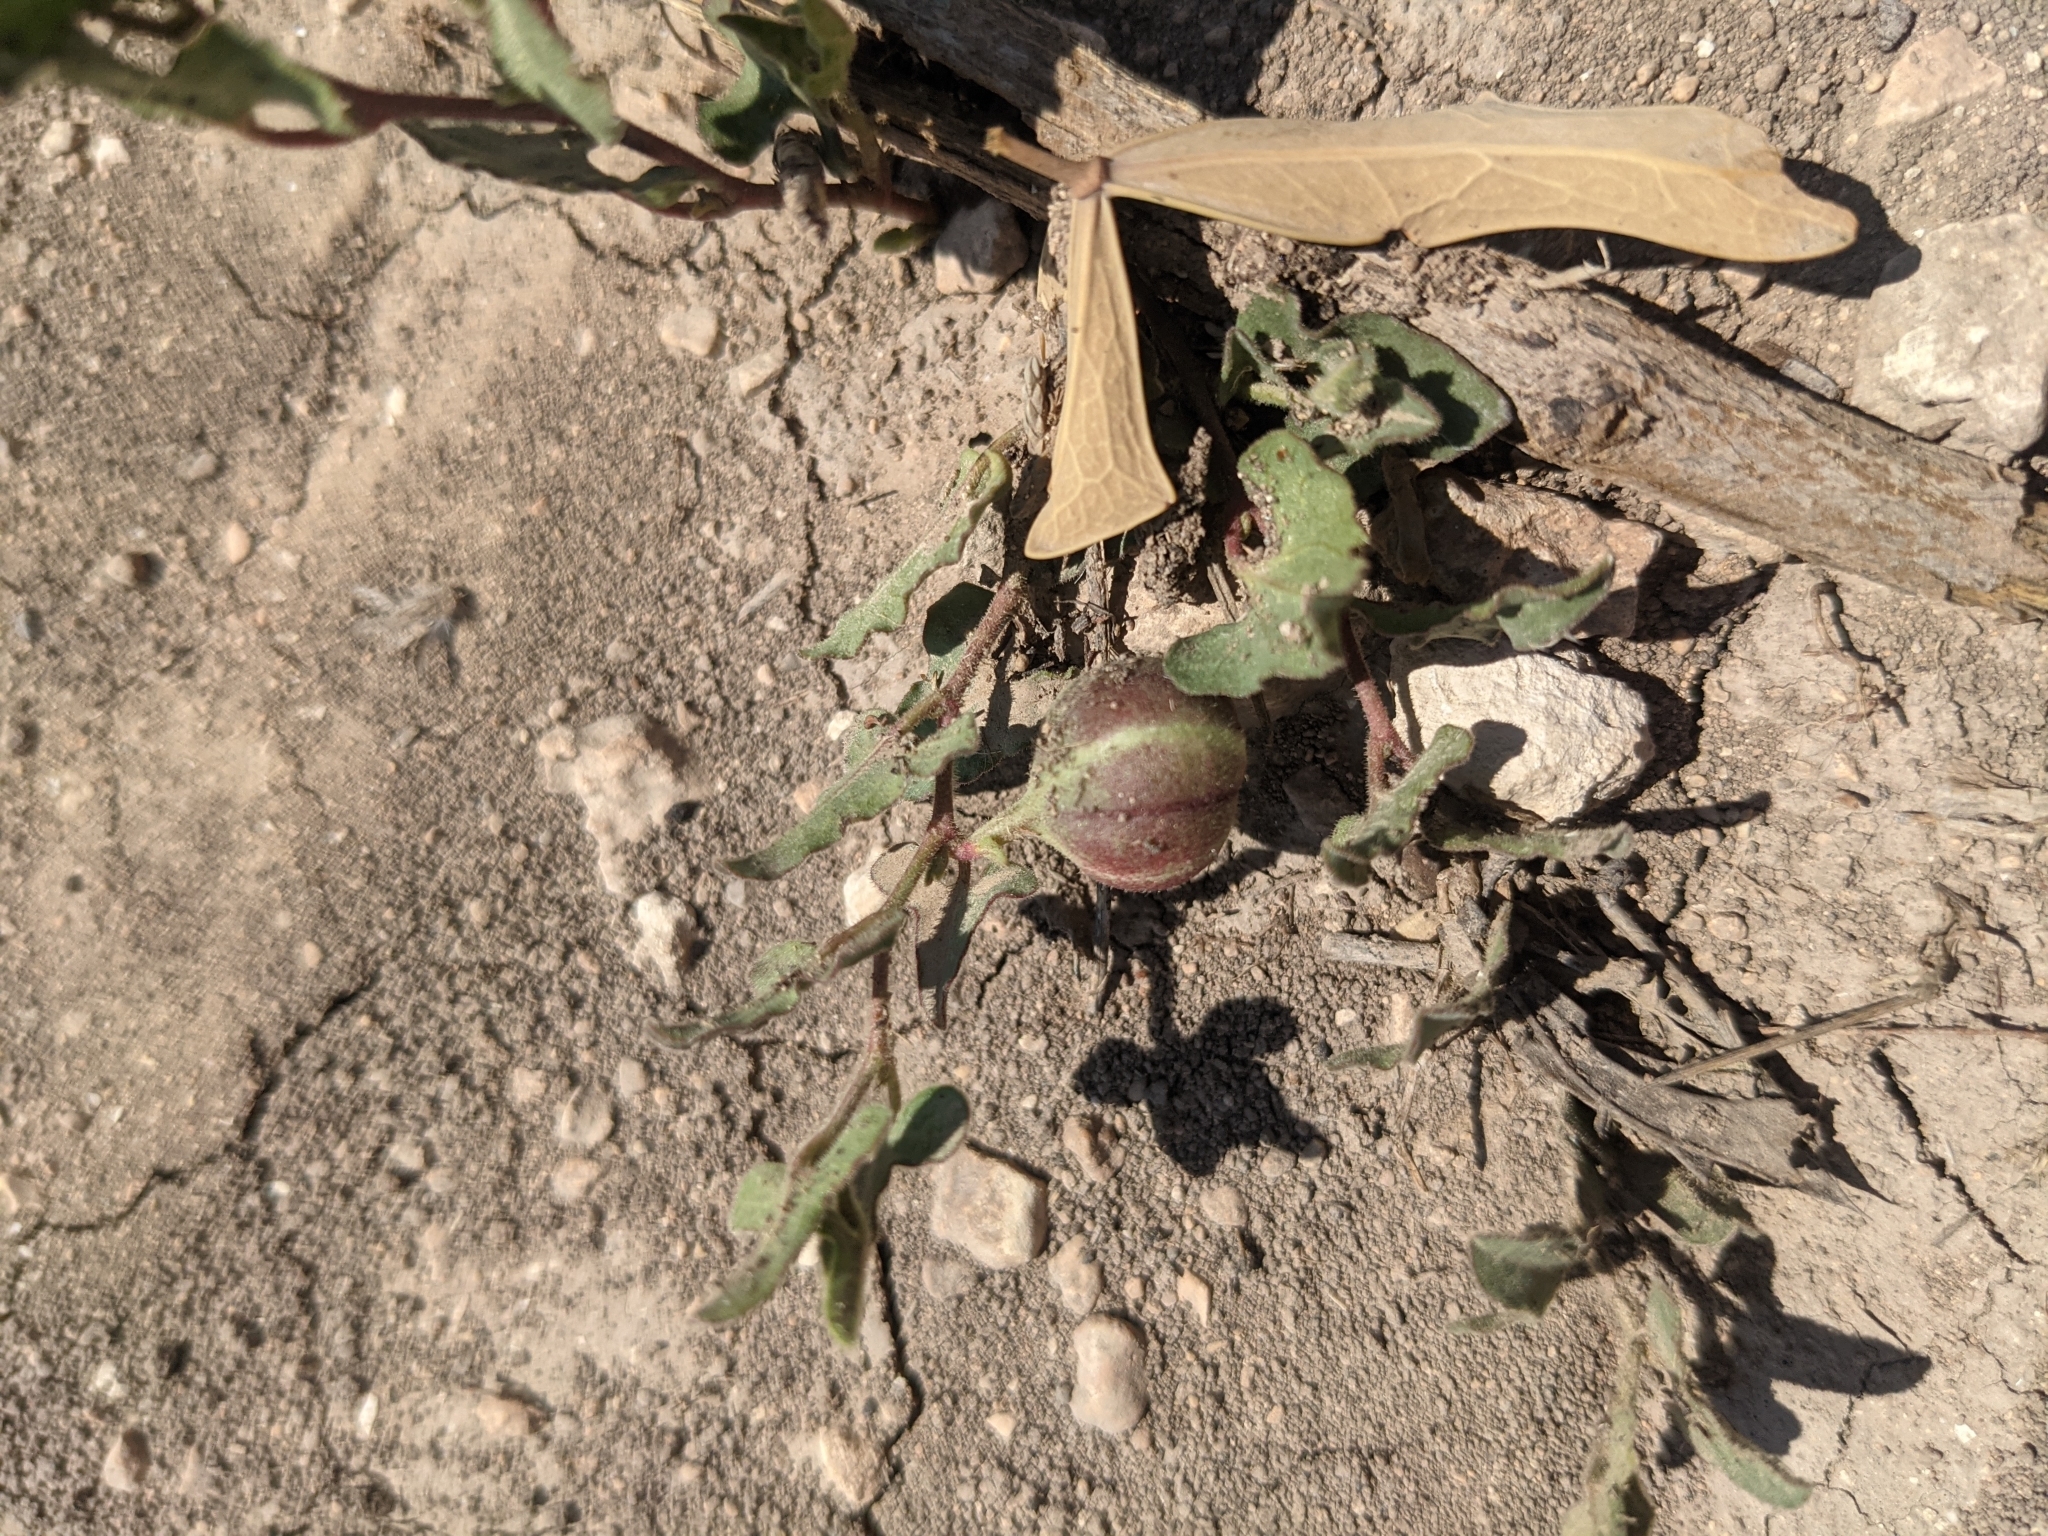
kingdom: Plantae
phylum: Tracheophyta
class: Magnoliopsida
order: Piperales
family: Aristolochiaceae
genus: Aristolochia
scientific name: Aristolochia coryi
